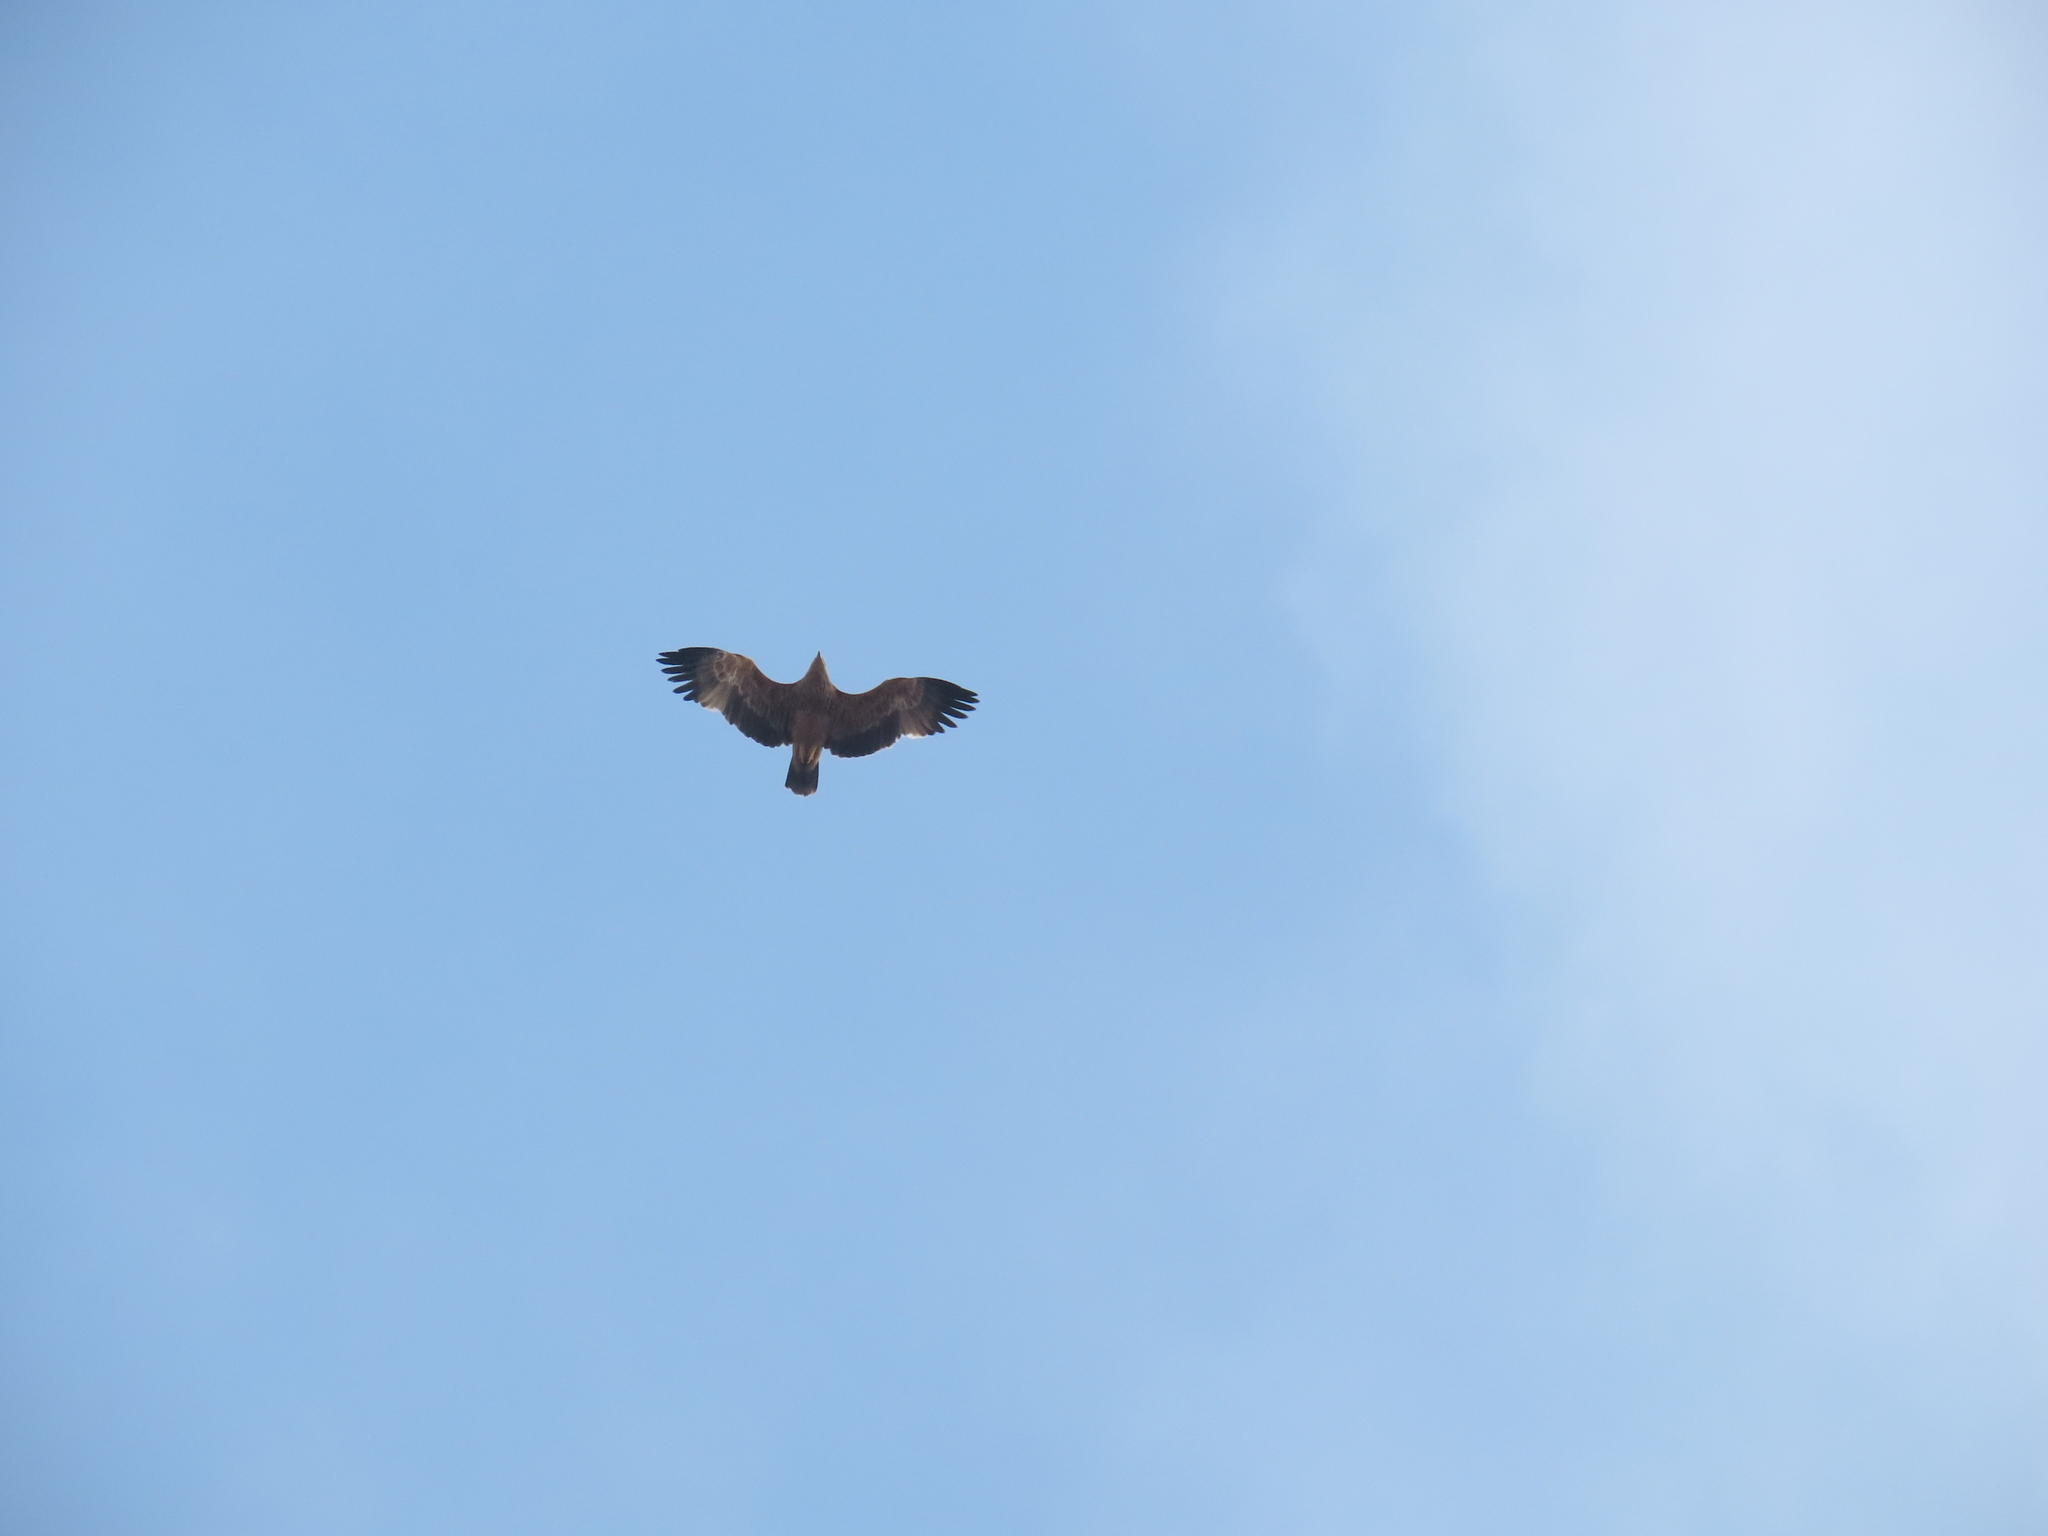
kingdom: Animalia
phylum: Chordata
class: Aves
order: Accipitriformes
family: Accipitridae
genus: Aquila
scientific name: Aquila heliaca
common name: Eastern imperial eagle
